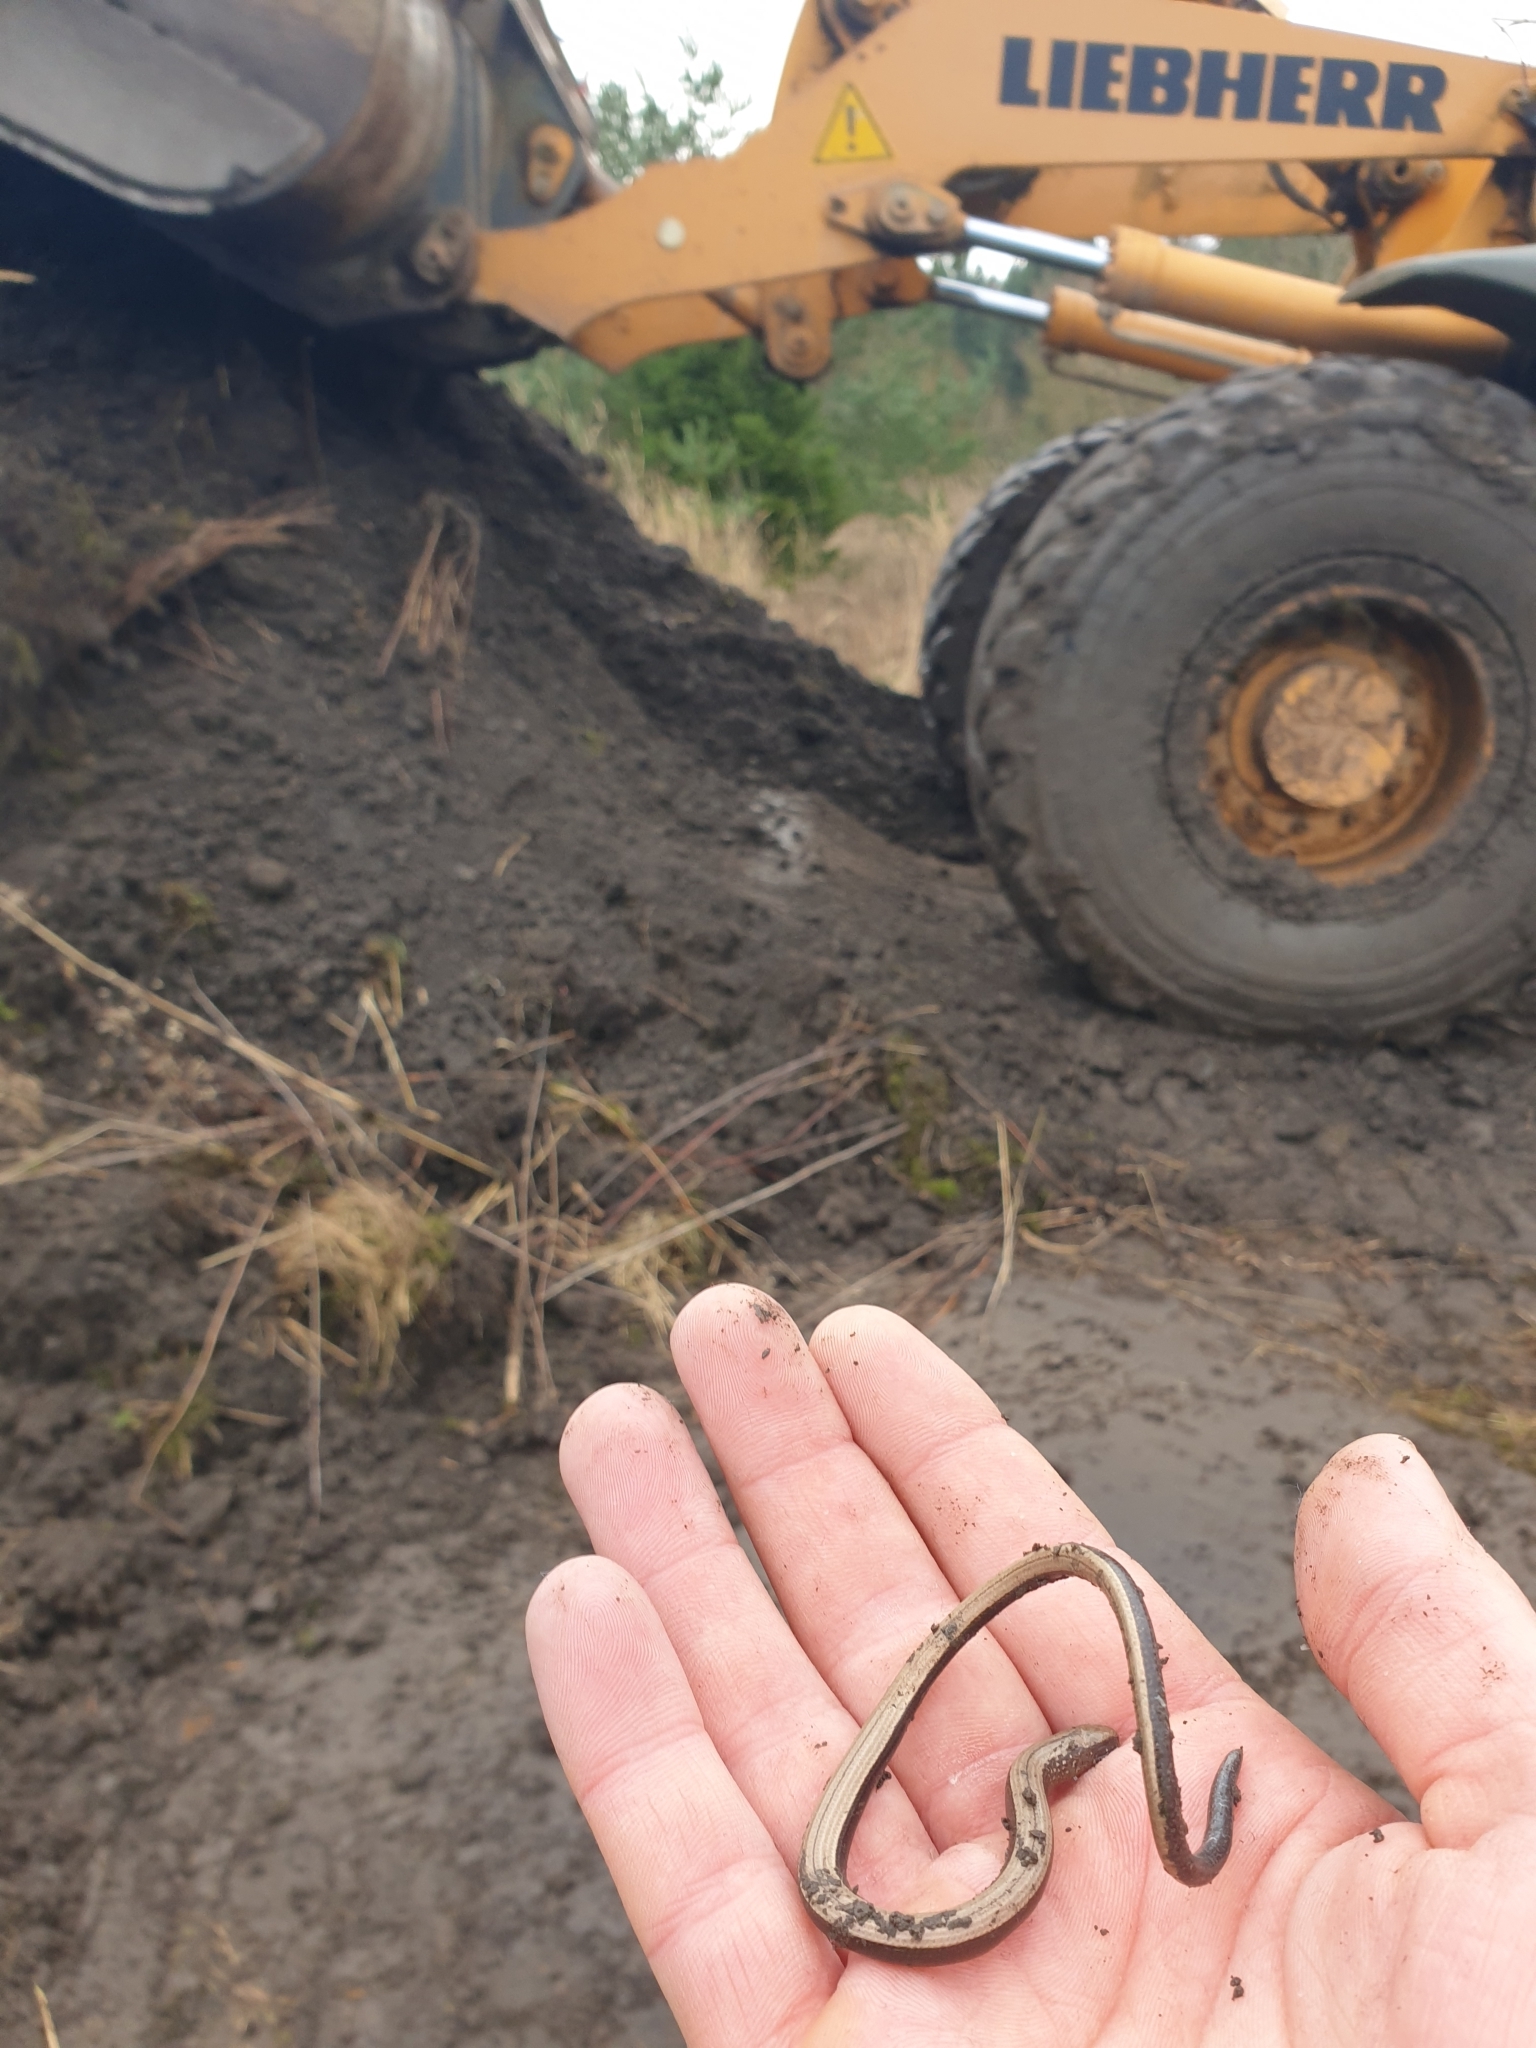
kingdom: Animalia
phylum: Chordata
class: Squamata
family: Anguidae
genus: Anguis
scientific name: Anguis fragilis
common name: Slow worm
